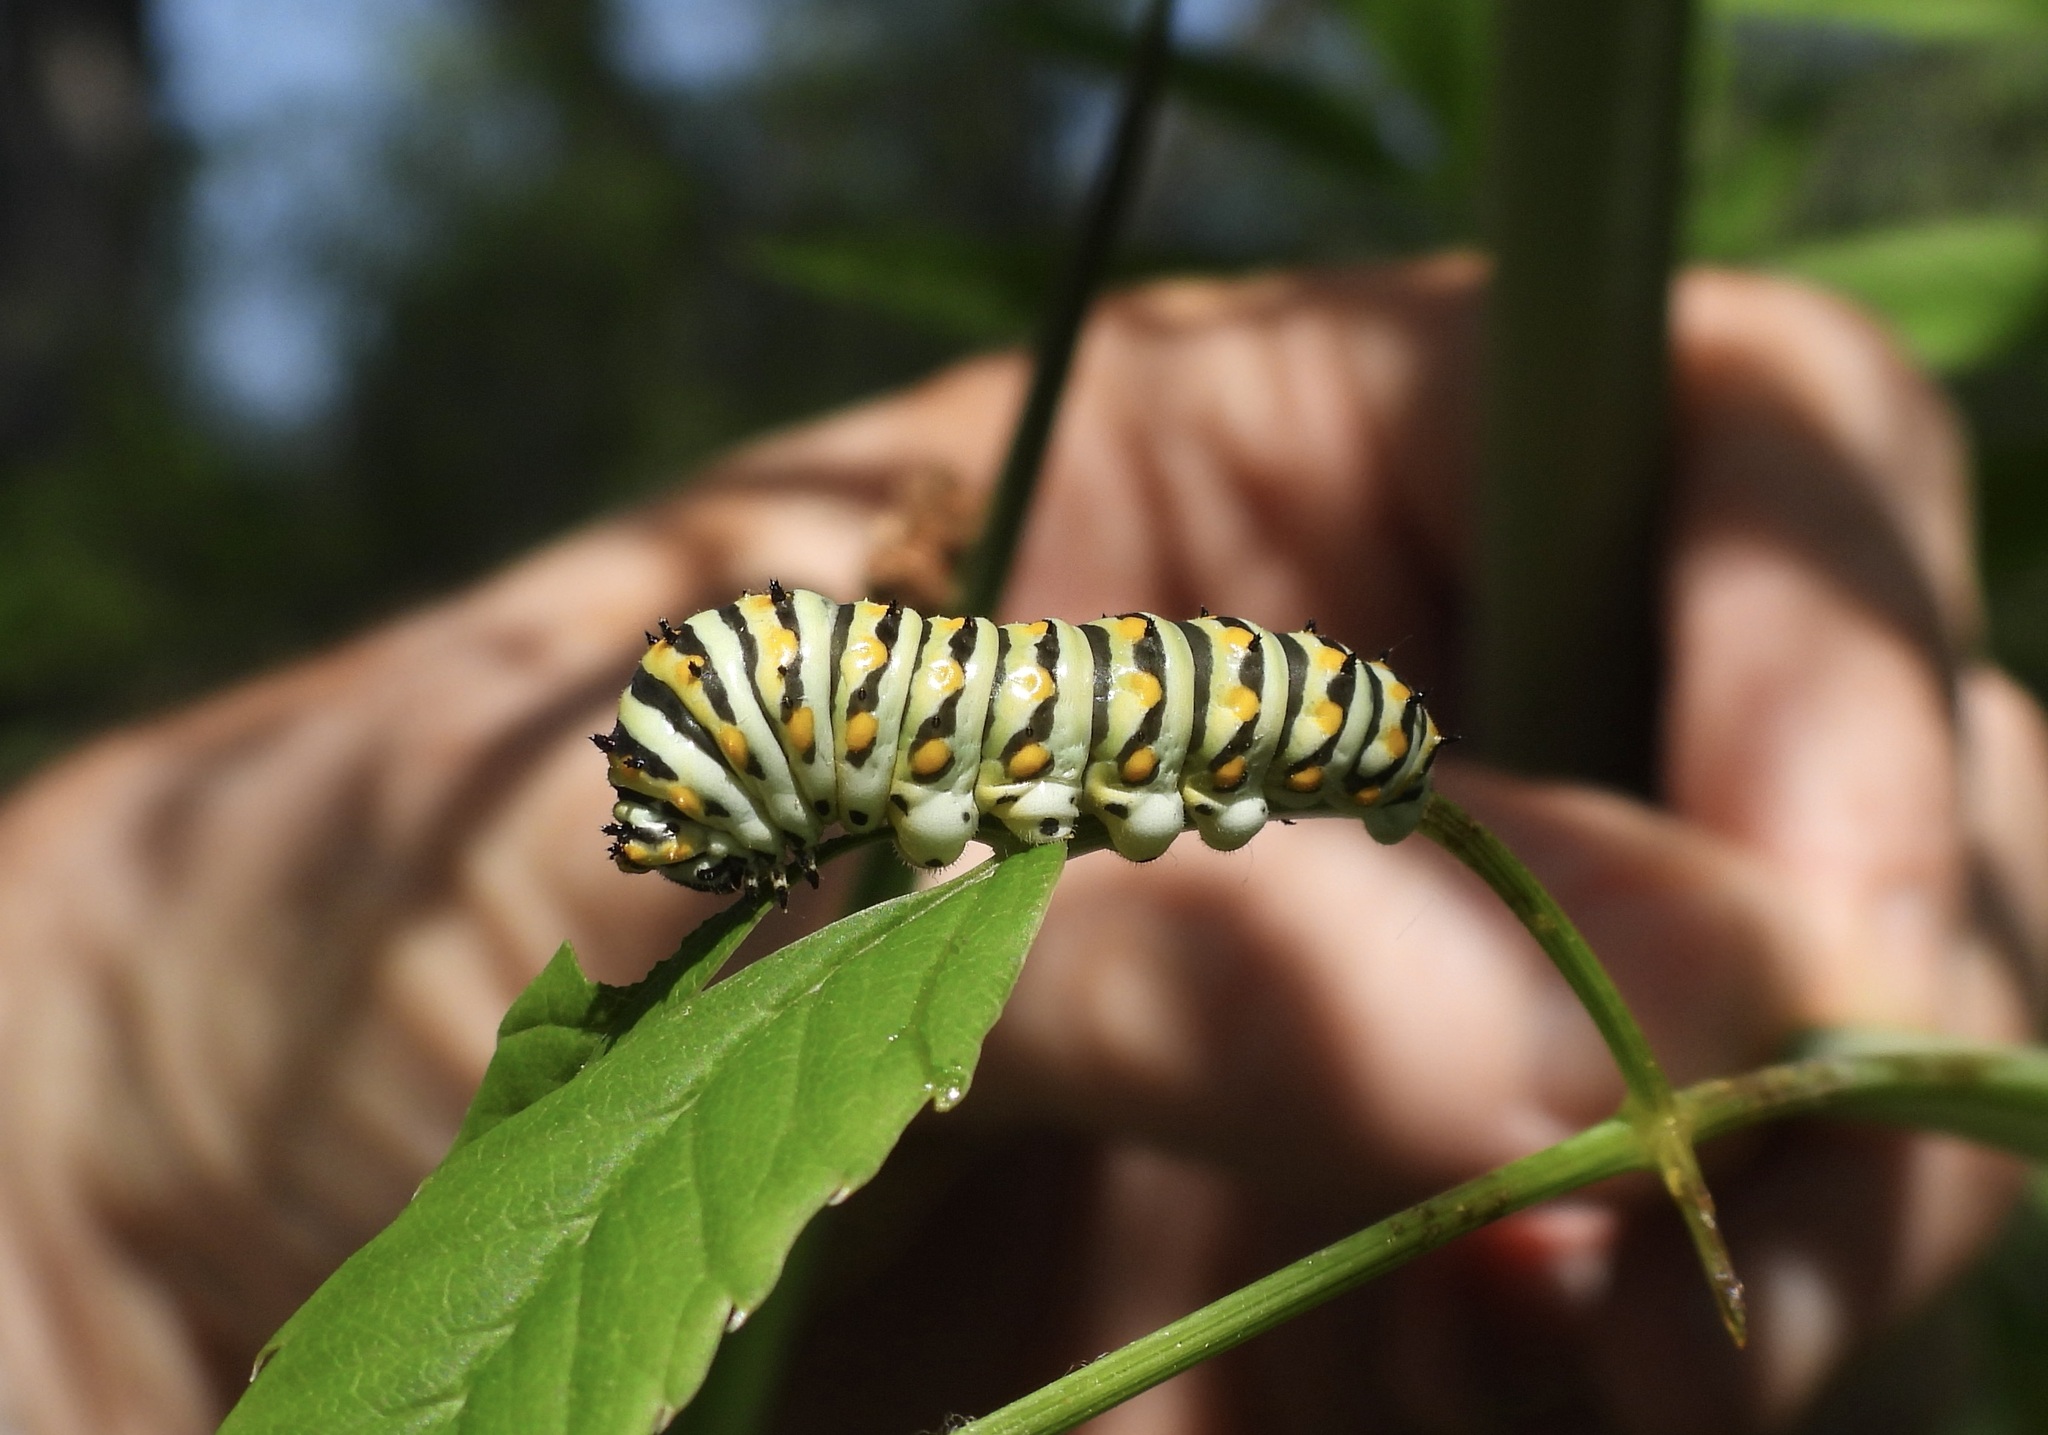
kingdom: Animalia
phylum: Arthropoda
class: Insecta
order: Lepidoptera
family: Papilionidae
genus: Papilio
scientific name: Papilio polyxenes
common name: Black swallowtail
